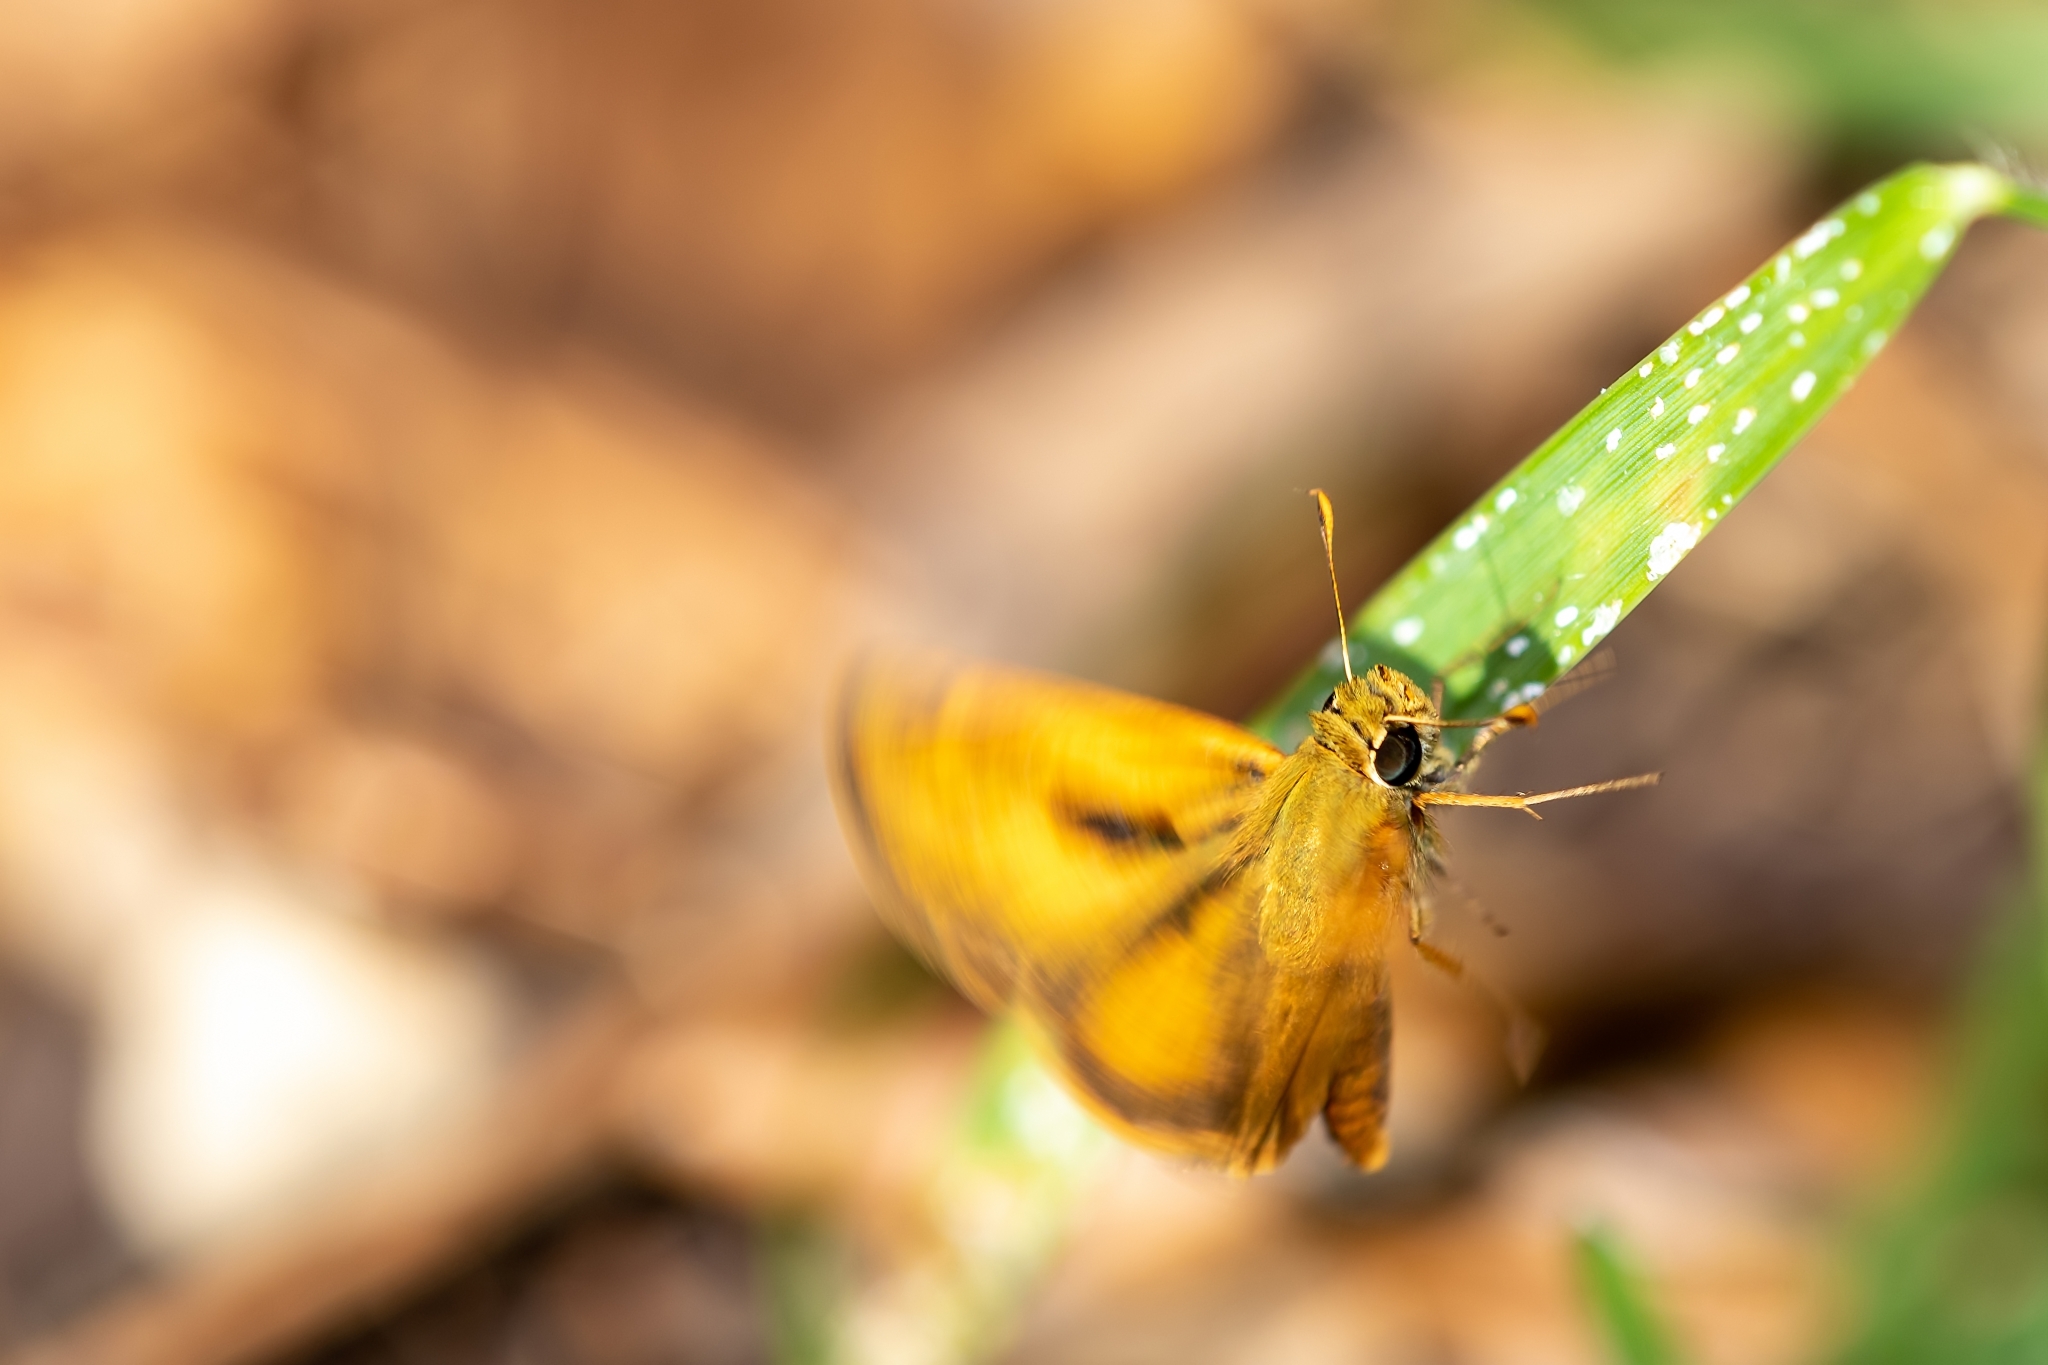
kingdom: Animalia
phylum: Arthropoda
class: Insecta
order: Lepidoptera
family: Hesperiidae
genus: Polites
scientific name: Polites vibex
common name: Whirlabout
